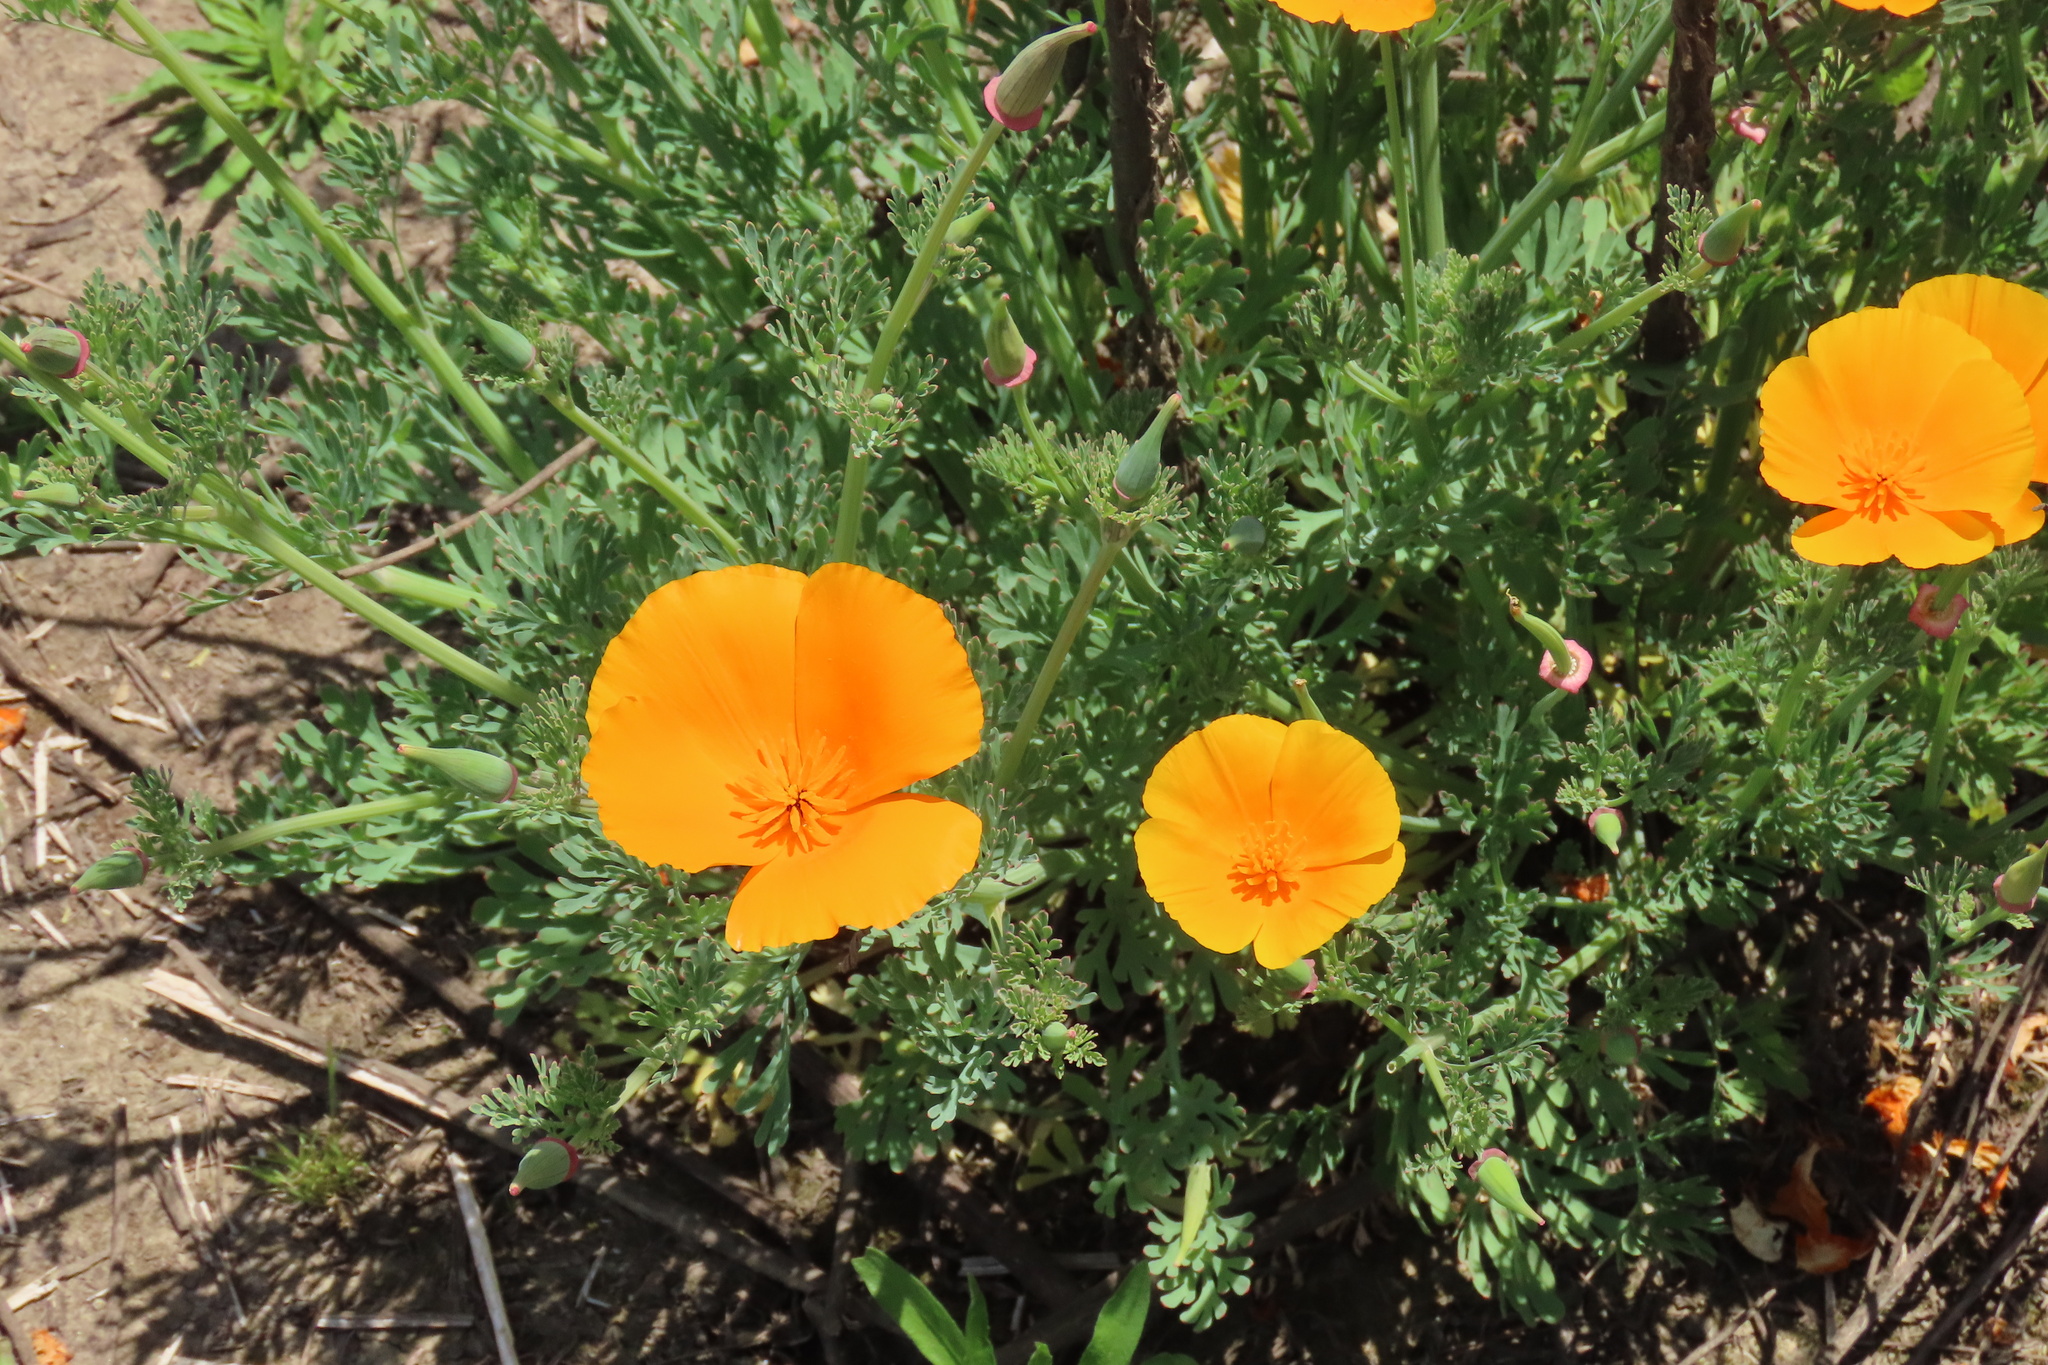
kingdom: Plantae
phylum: Tracheophyta
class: Magnoliopsida
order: Ranunculales
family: Papaveraceae
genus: Eschscholzia
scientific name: Eschscholzia californica
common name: California poppy
